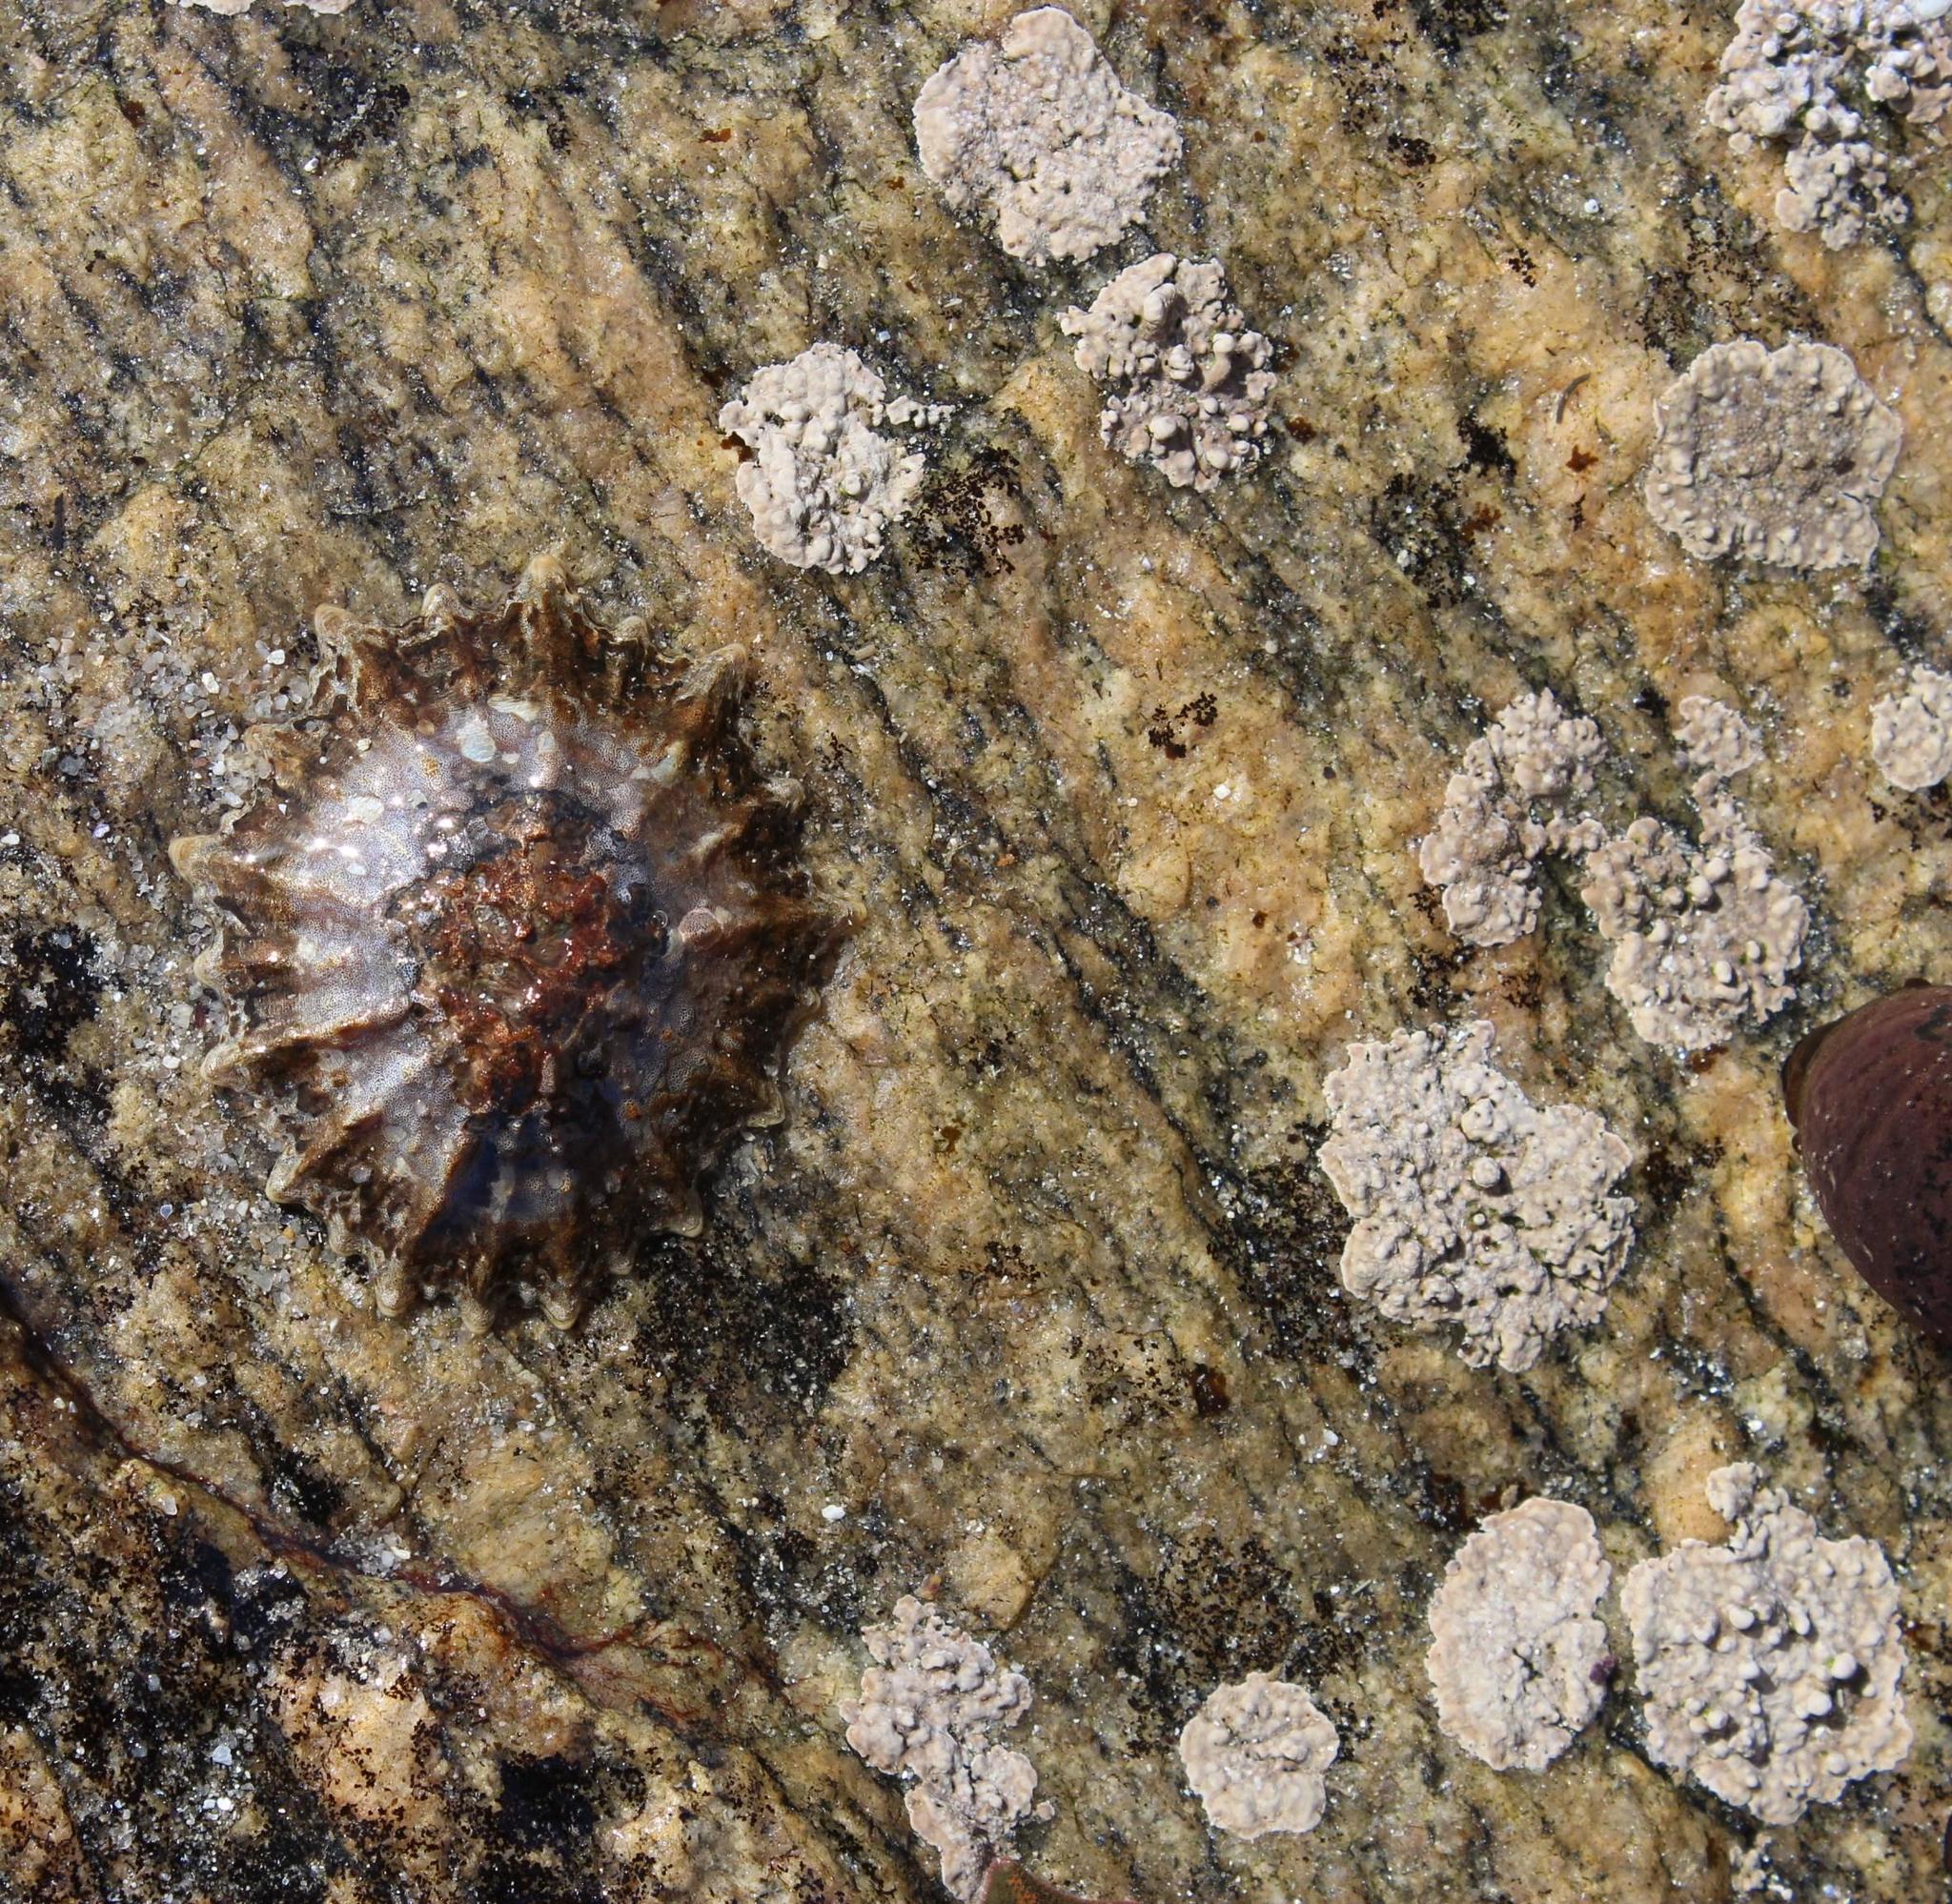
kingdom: Animalia
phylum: Mollusca
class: Gastropoda
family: Patellidae
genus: Cymbula
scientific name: Cymbula granatina
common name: Granite limpet
